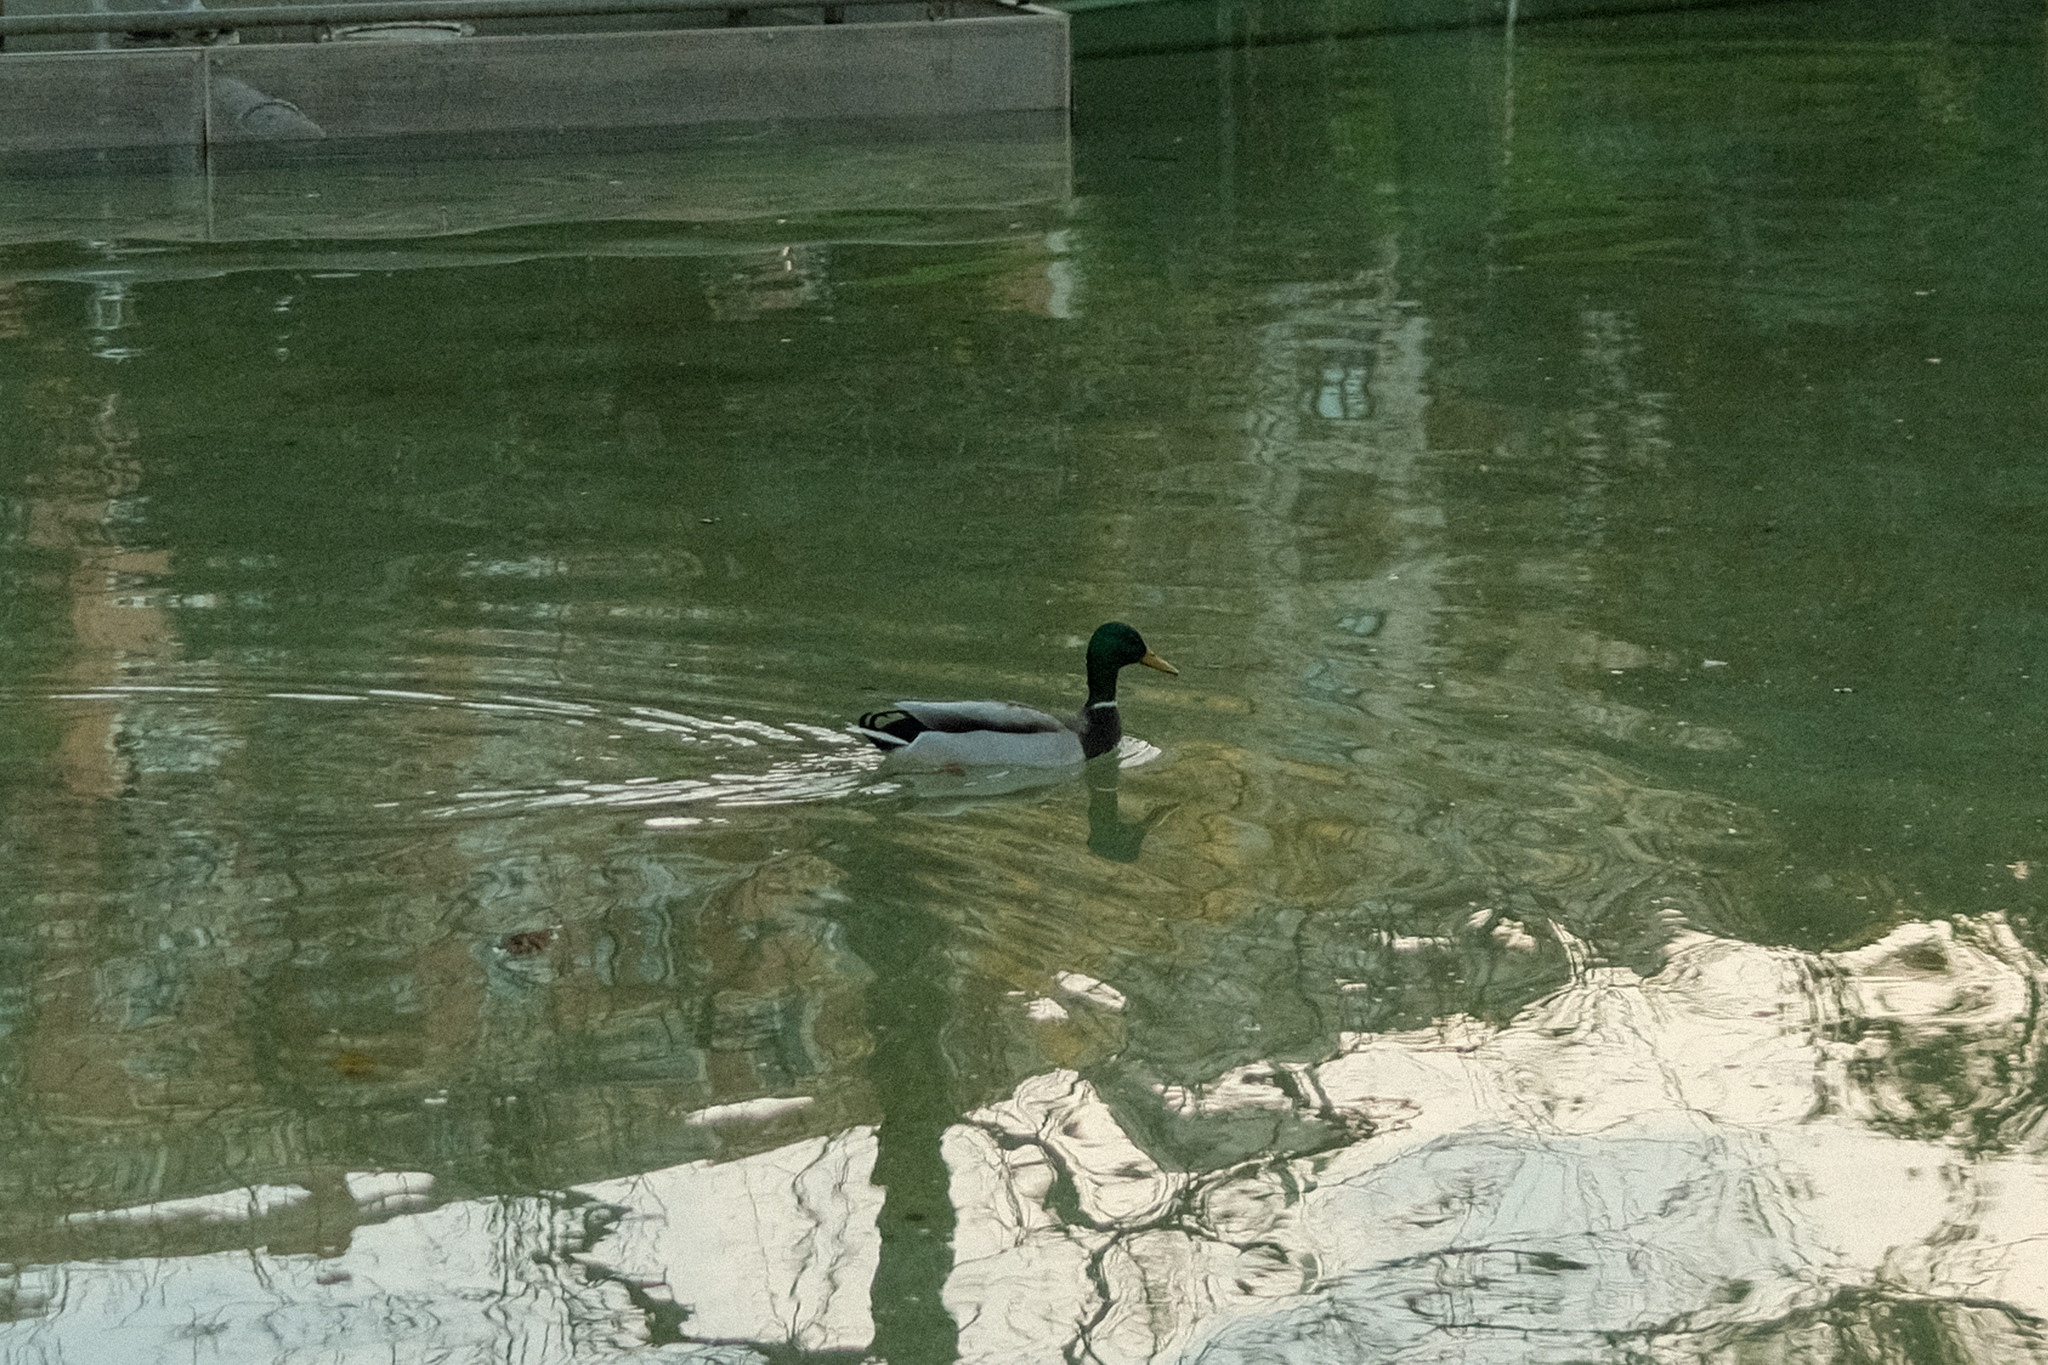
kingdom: Animalia
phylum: Chordata
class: Aves
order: Anseriformes
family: Anatidae
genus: Anas
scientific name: Anas platyrhynchos
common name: Mallard
